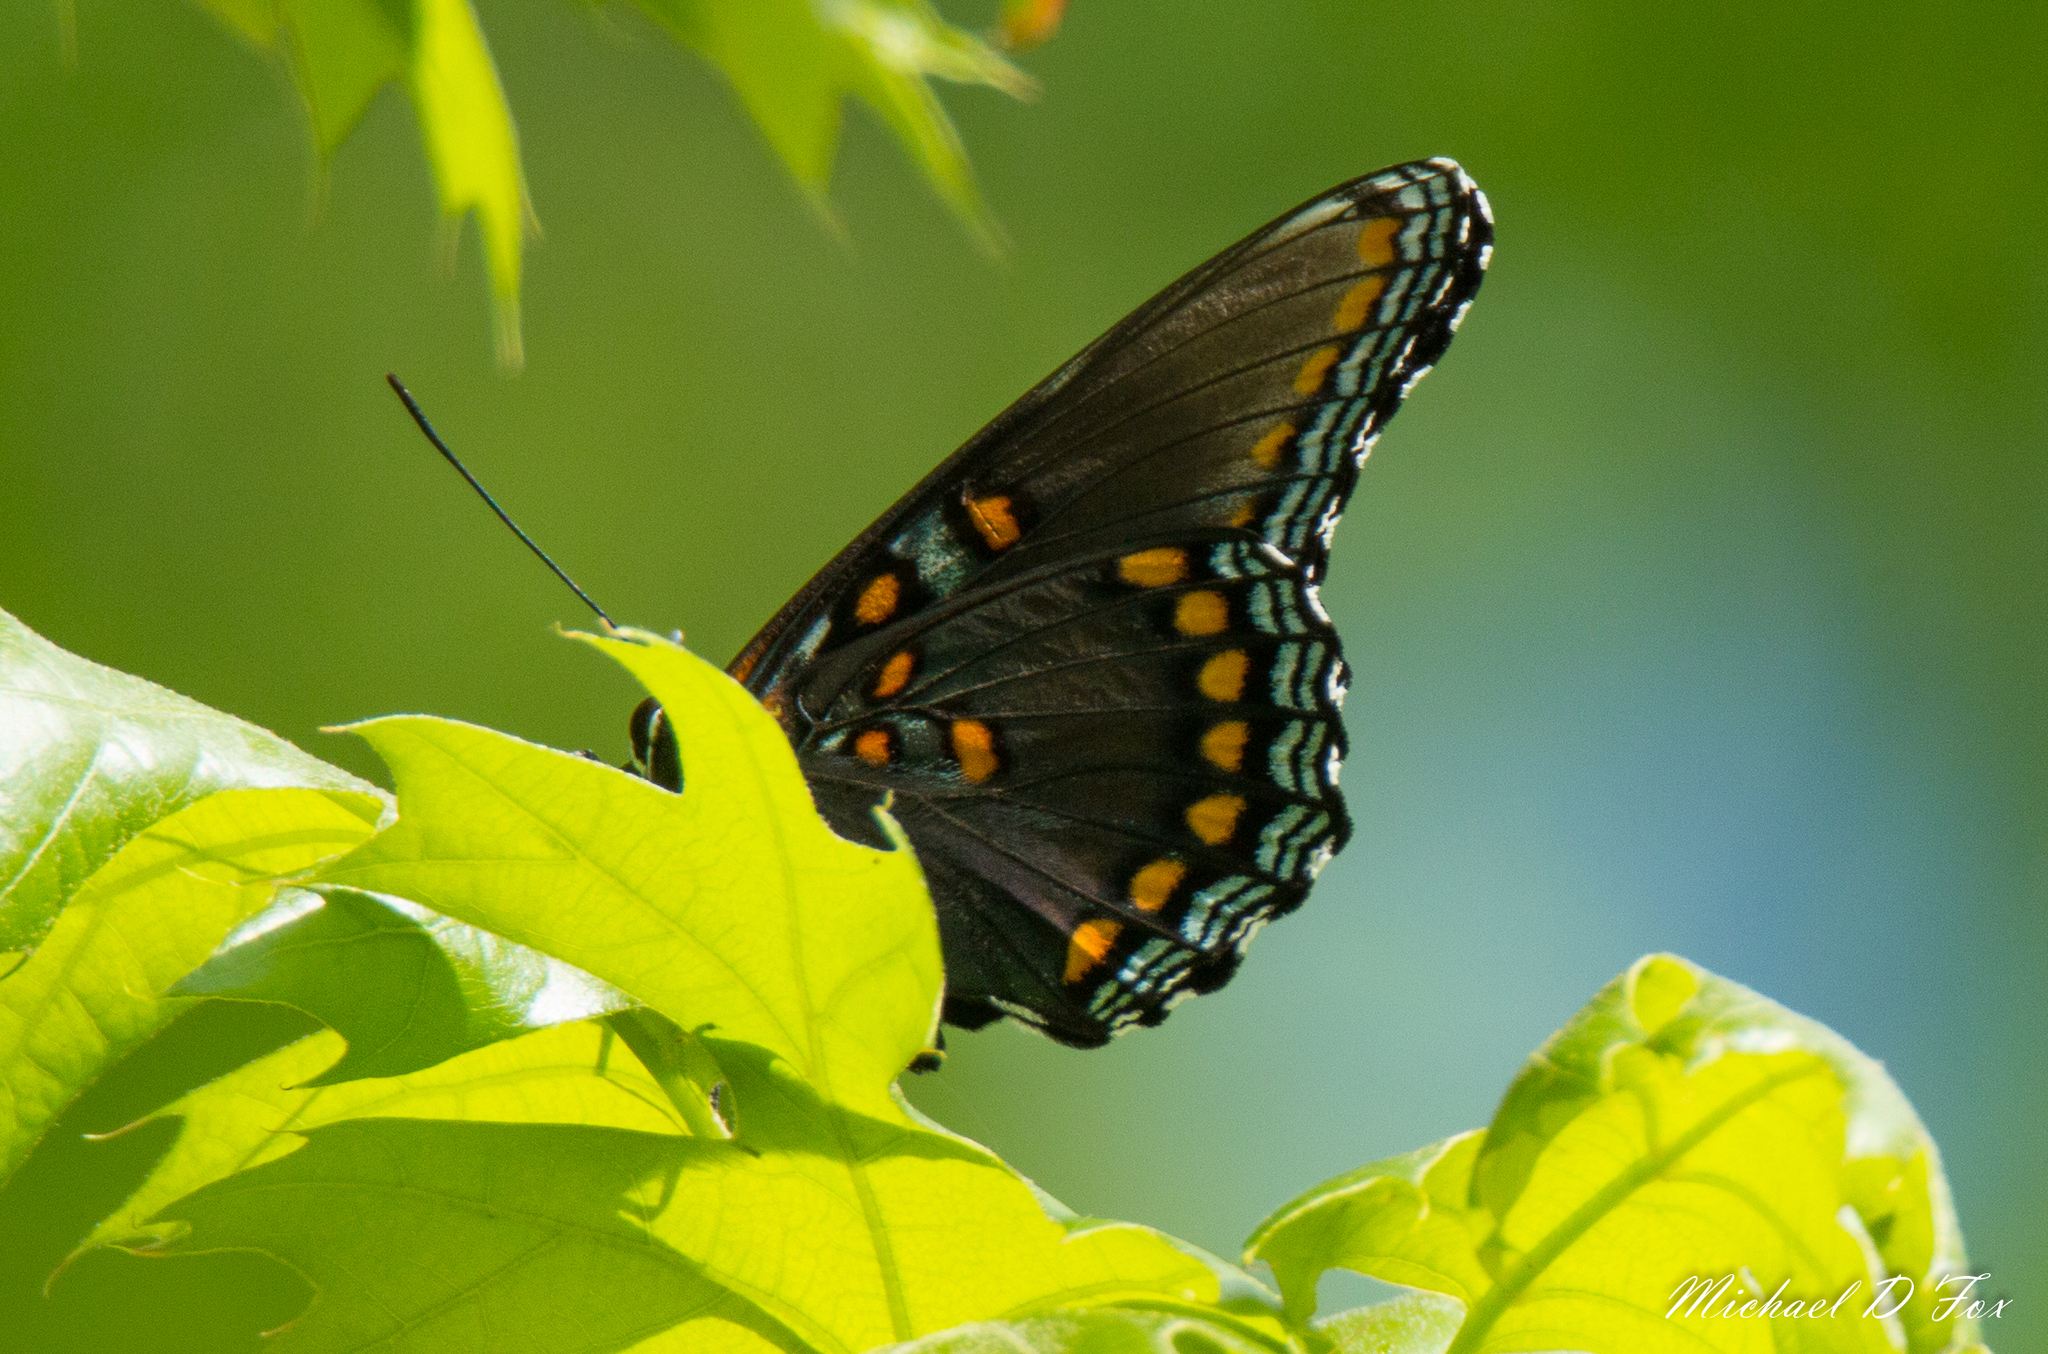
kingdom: Animalia
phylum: Arthropoda
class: Insecta
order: Lepidoptera
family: Nymphalidae
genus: Limenitis
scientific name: Limenitis astyanax
